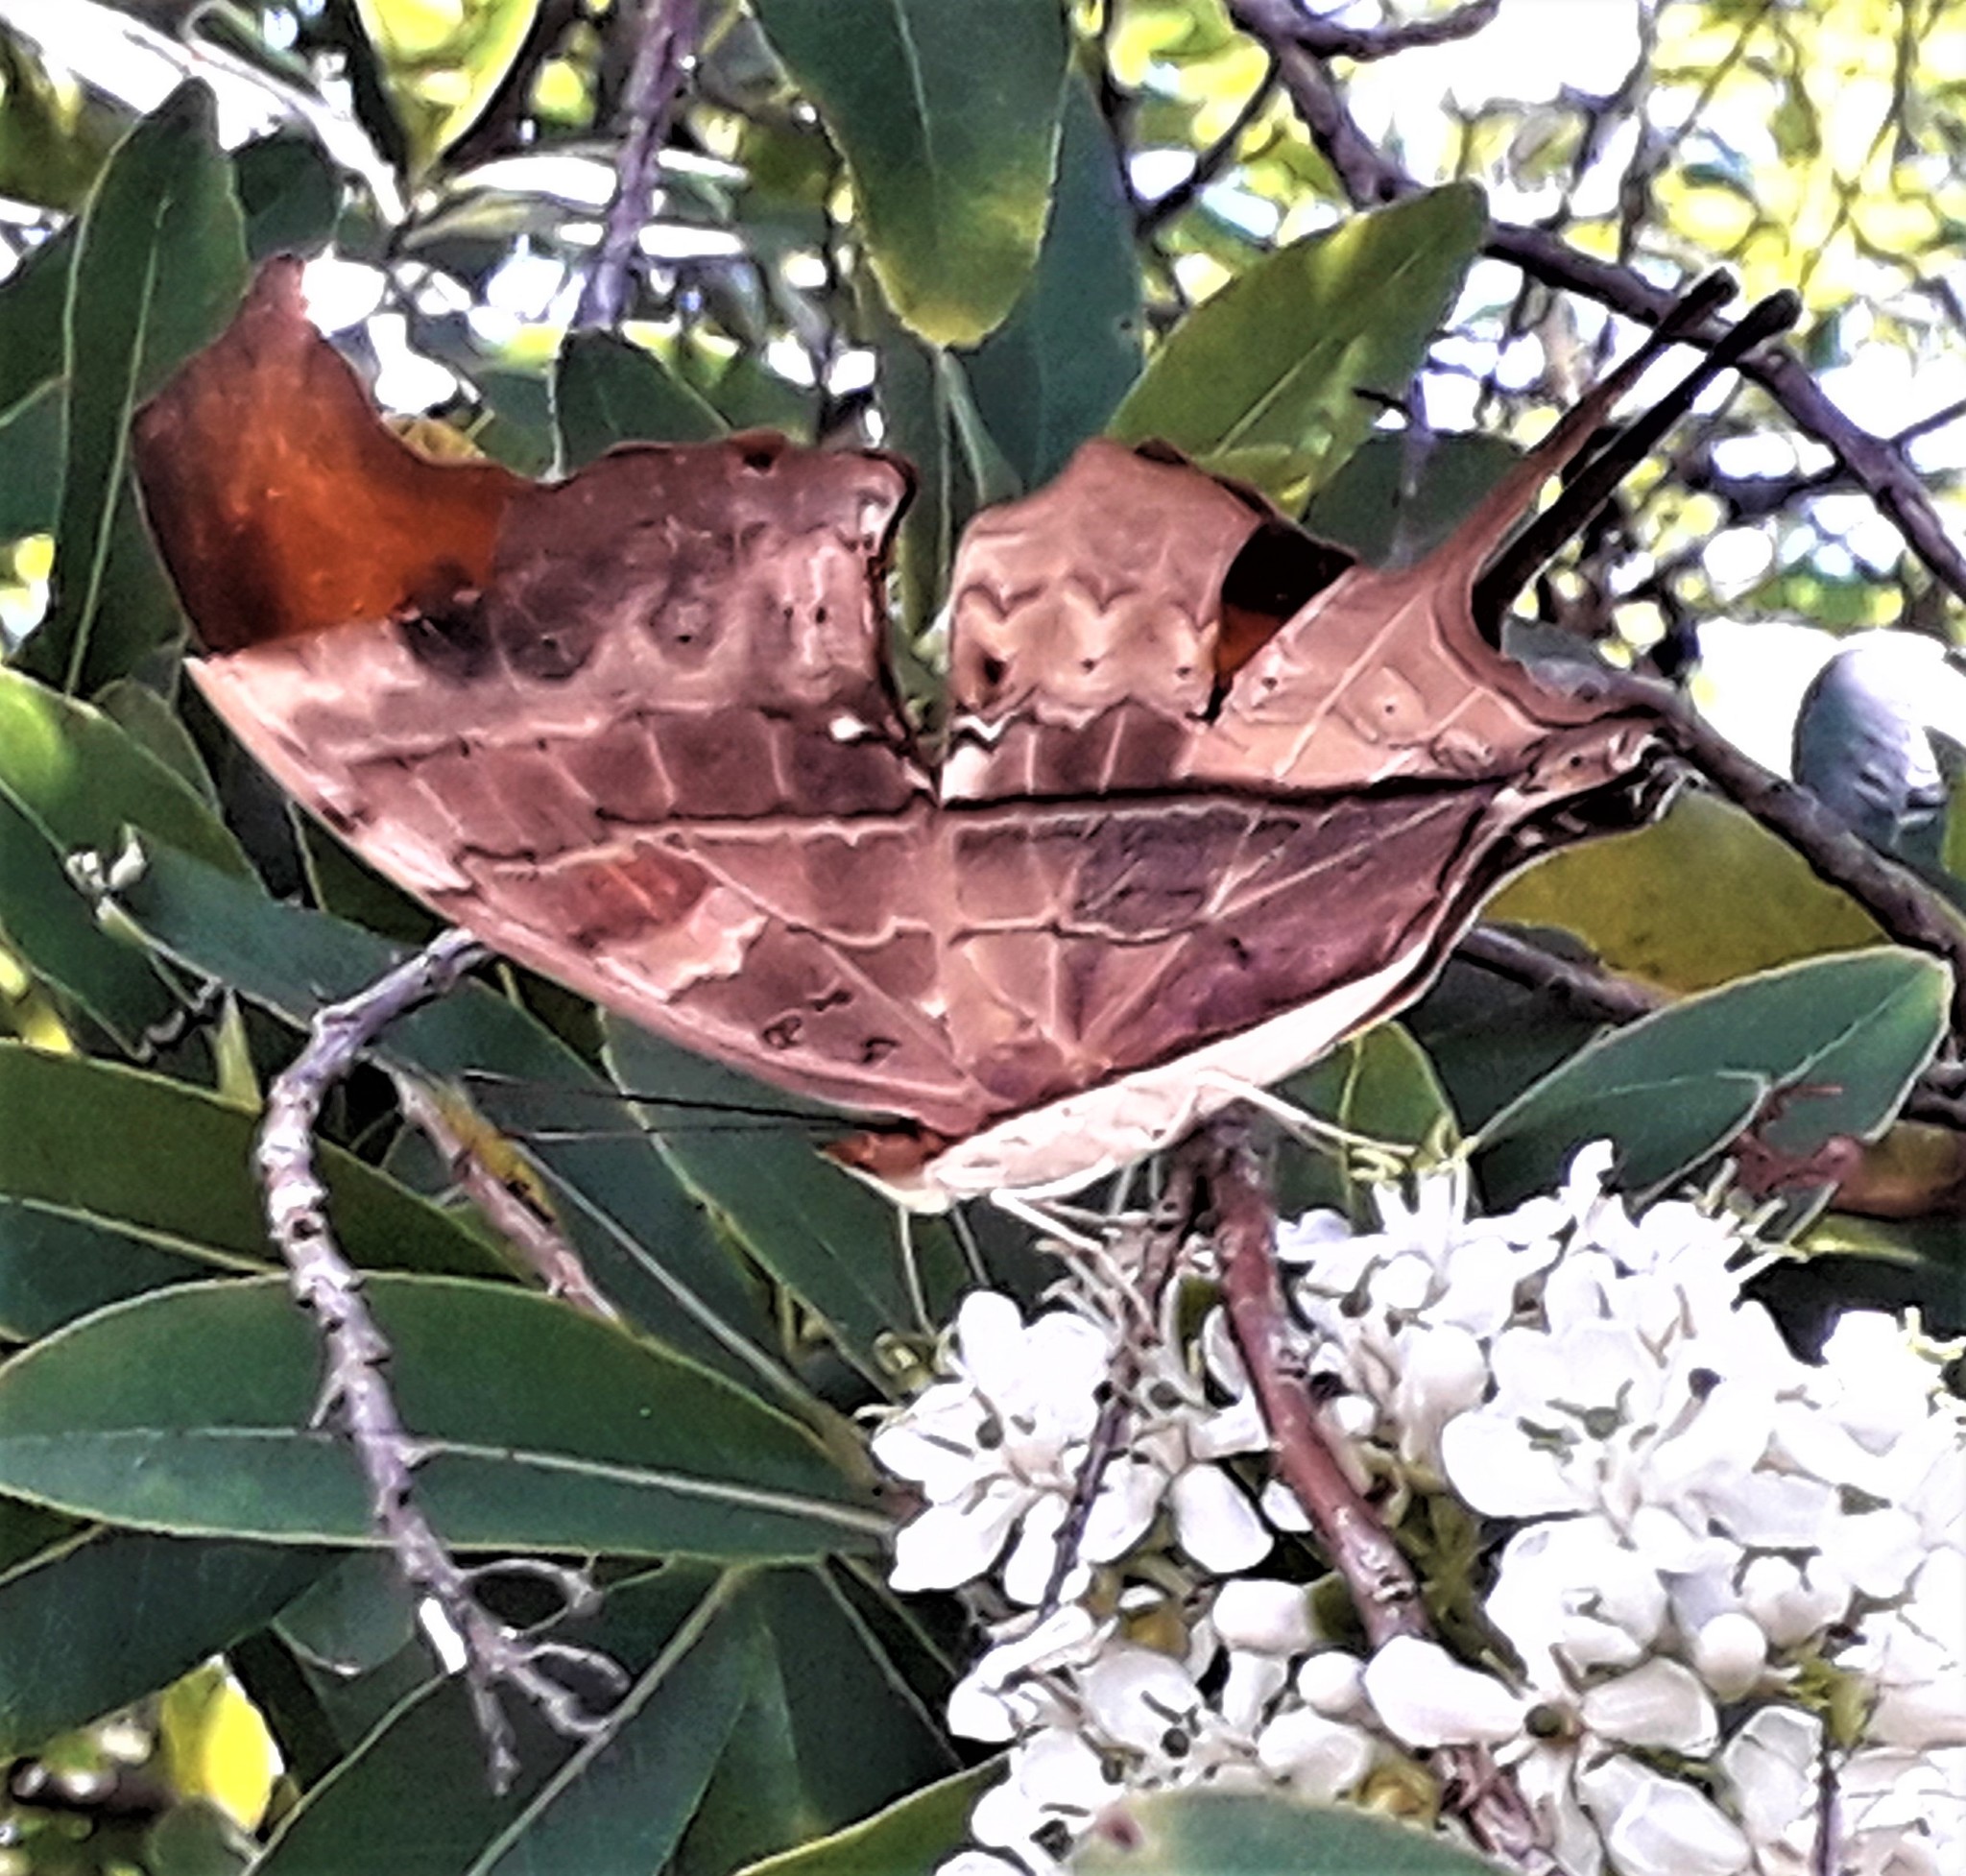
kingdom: Animalia
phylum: Arthropoda
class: Insecta
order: Lepidoptera
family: Nymphalidae
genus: Marpesia
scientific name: Marpesia petreus
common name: Red dagger wing
